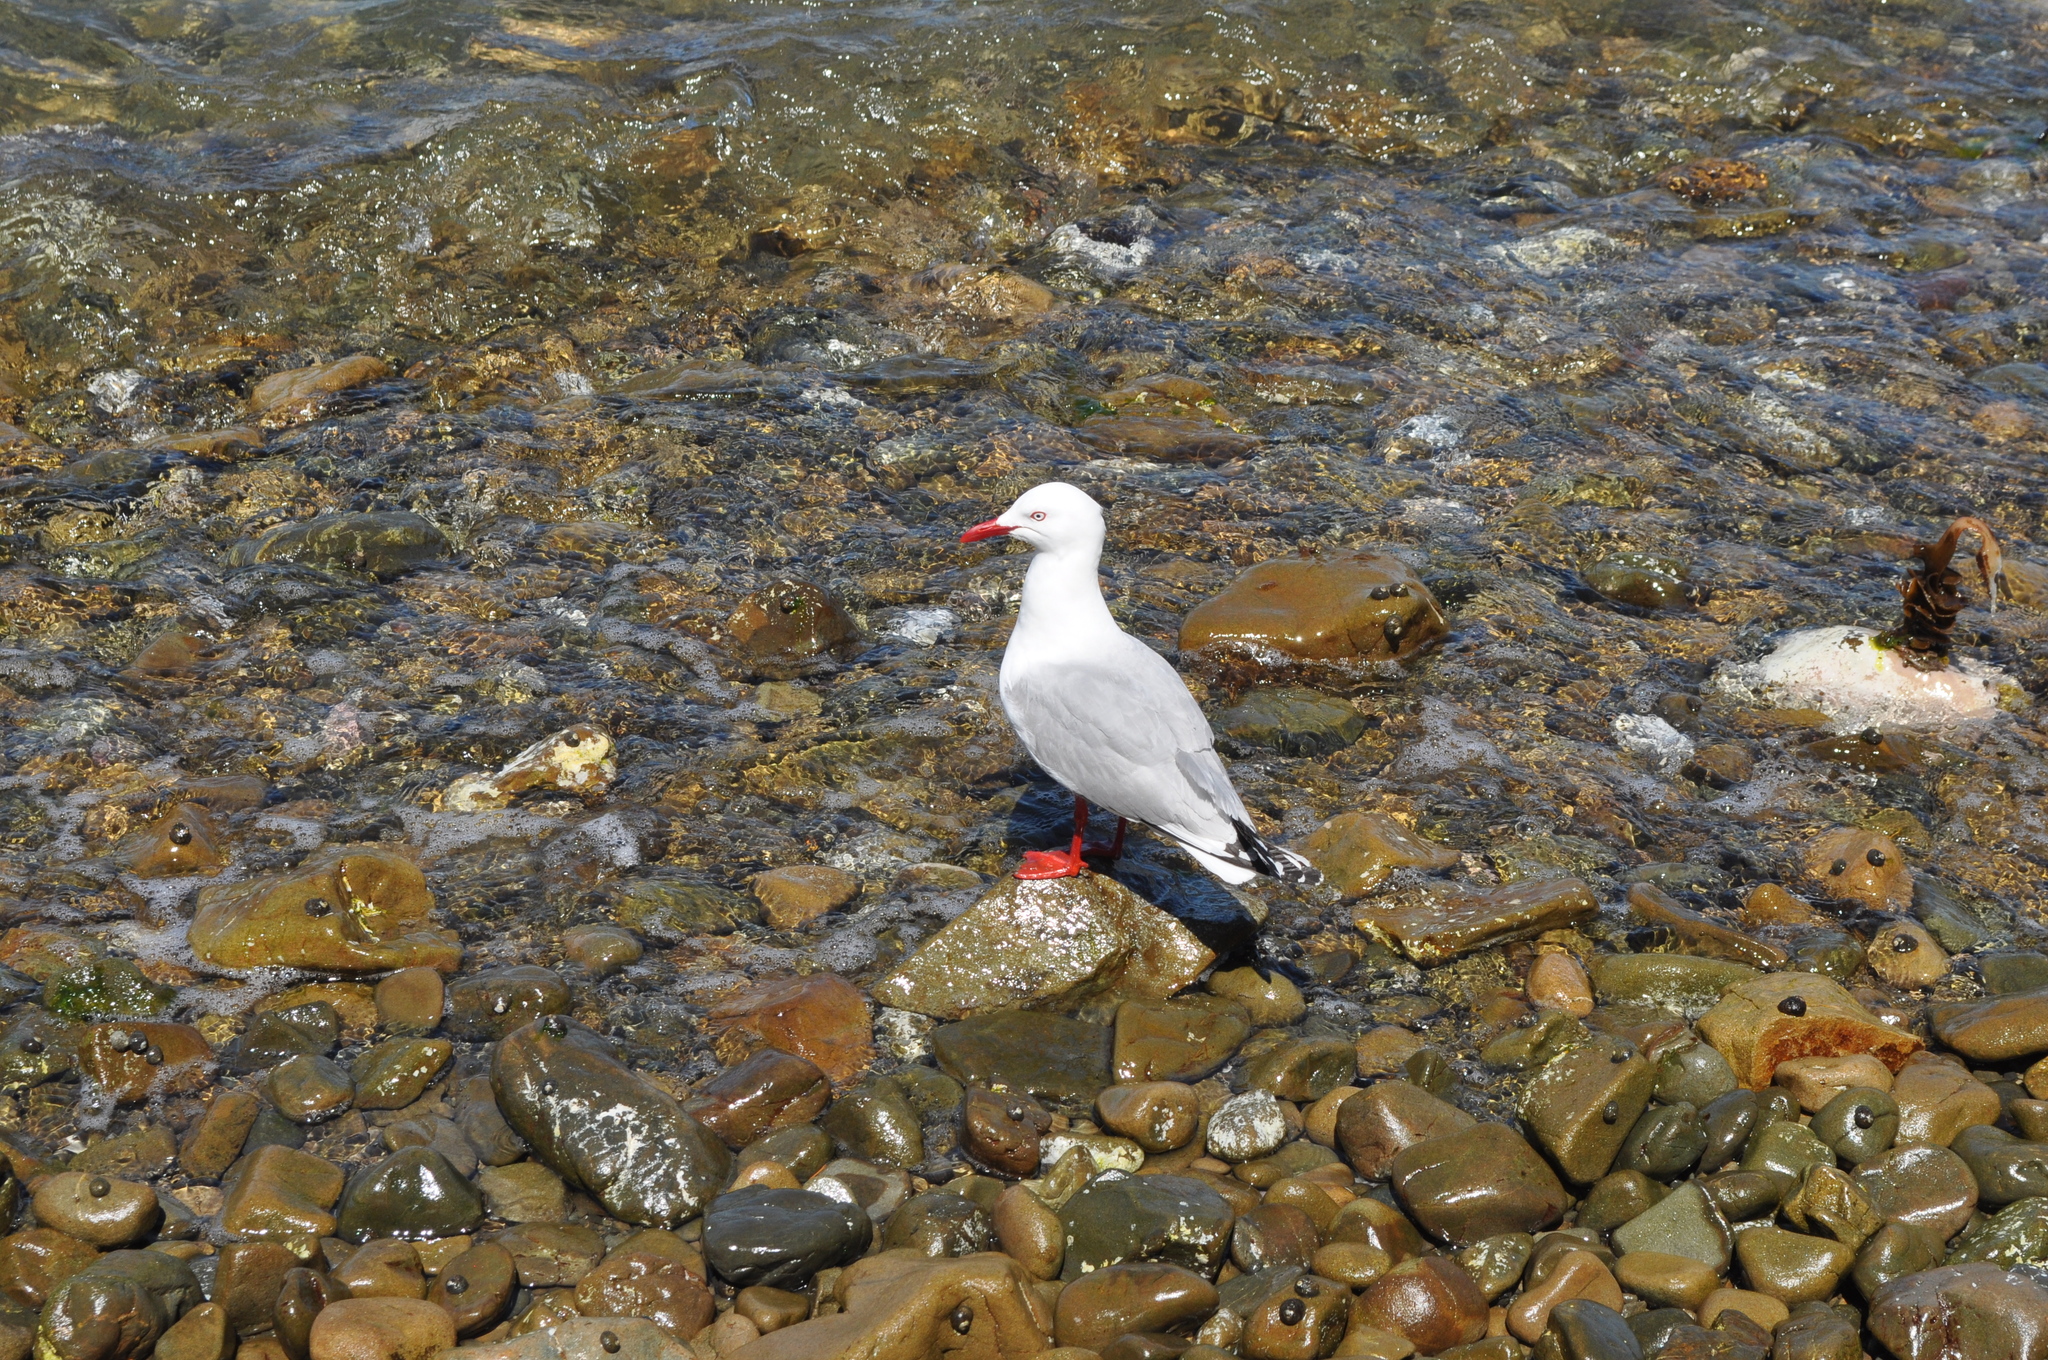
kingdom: Animalia
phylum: Chordata
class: Aves
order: Charadriiformes
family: Laridae
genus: Chroicocephalus
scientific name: Chroicocephalus novaehollandiae
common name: Silver gull
